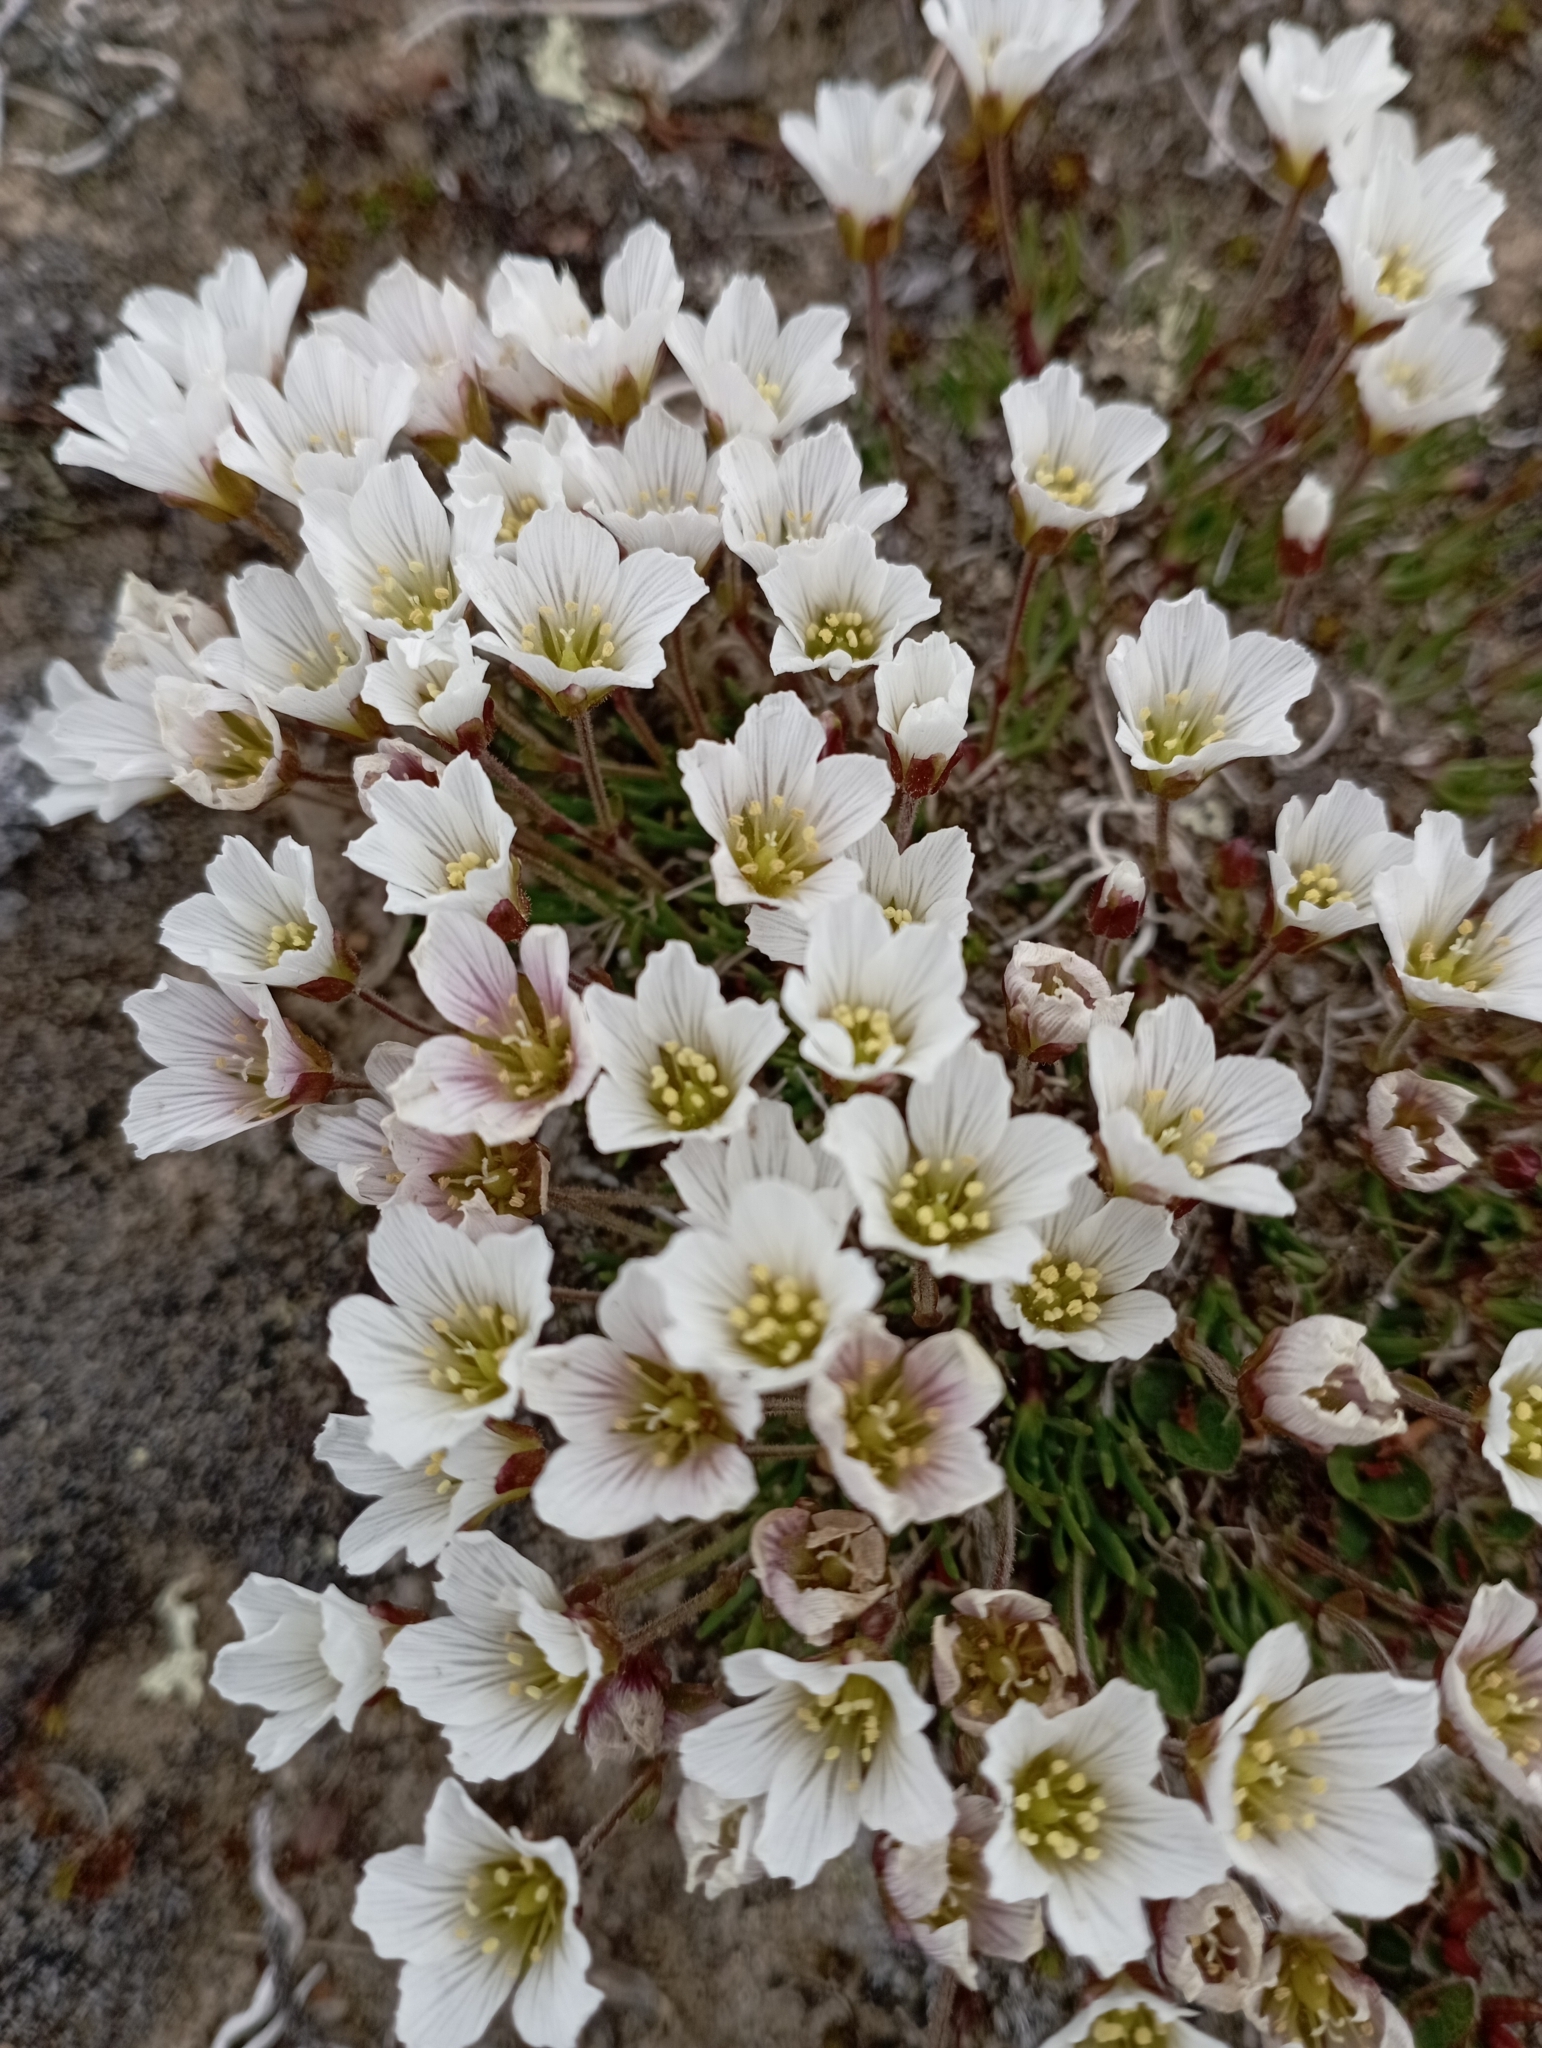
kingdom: Plantae
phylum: Tracheophyta
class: Magnoliopsida
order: Caryophyllales
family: Caryophyllaceae
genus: Cherleria
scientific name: Cherleria arctica
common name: Arctic sandwort
